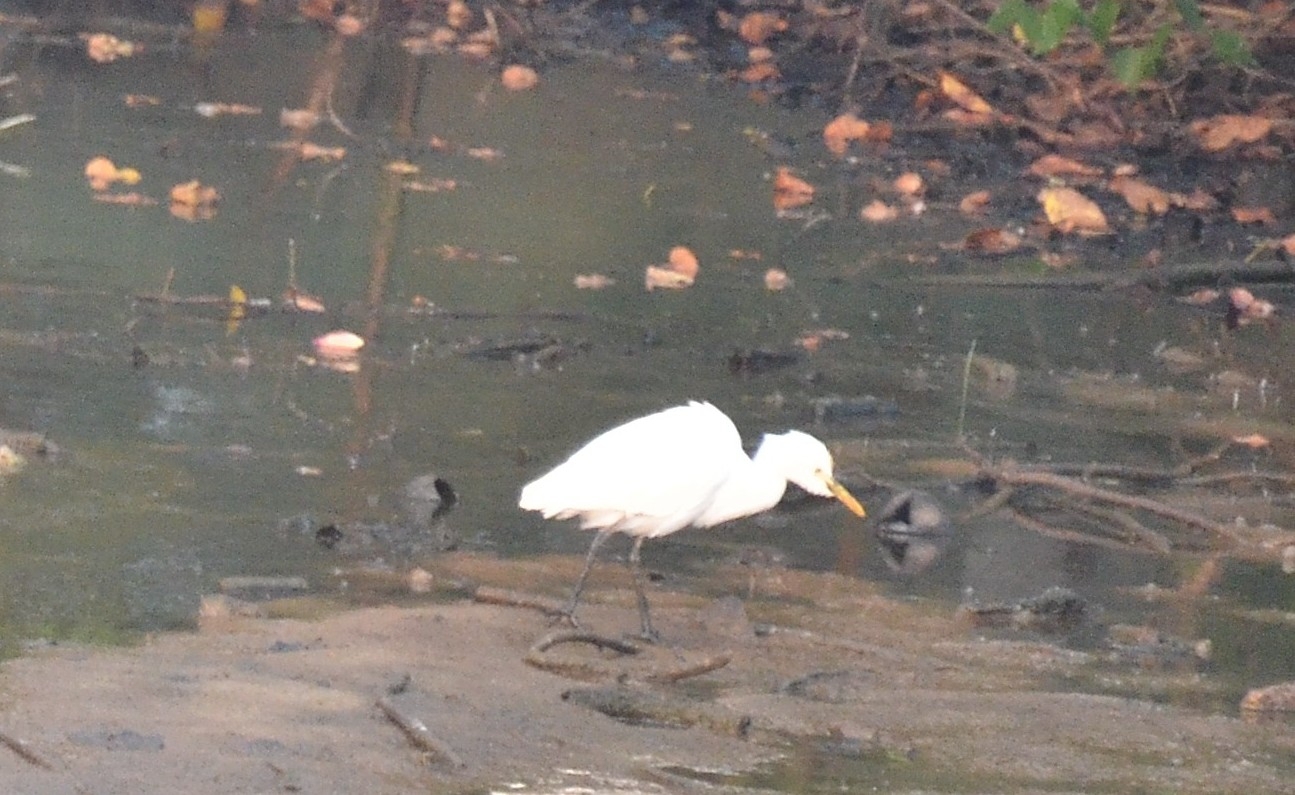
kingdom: Animalia
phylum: Chordata
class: Aves
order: Pelecaniformes
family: Ardeidae
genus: Bubulcus
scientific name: Bubulcus coromandus
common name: Eastern cattle egret
